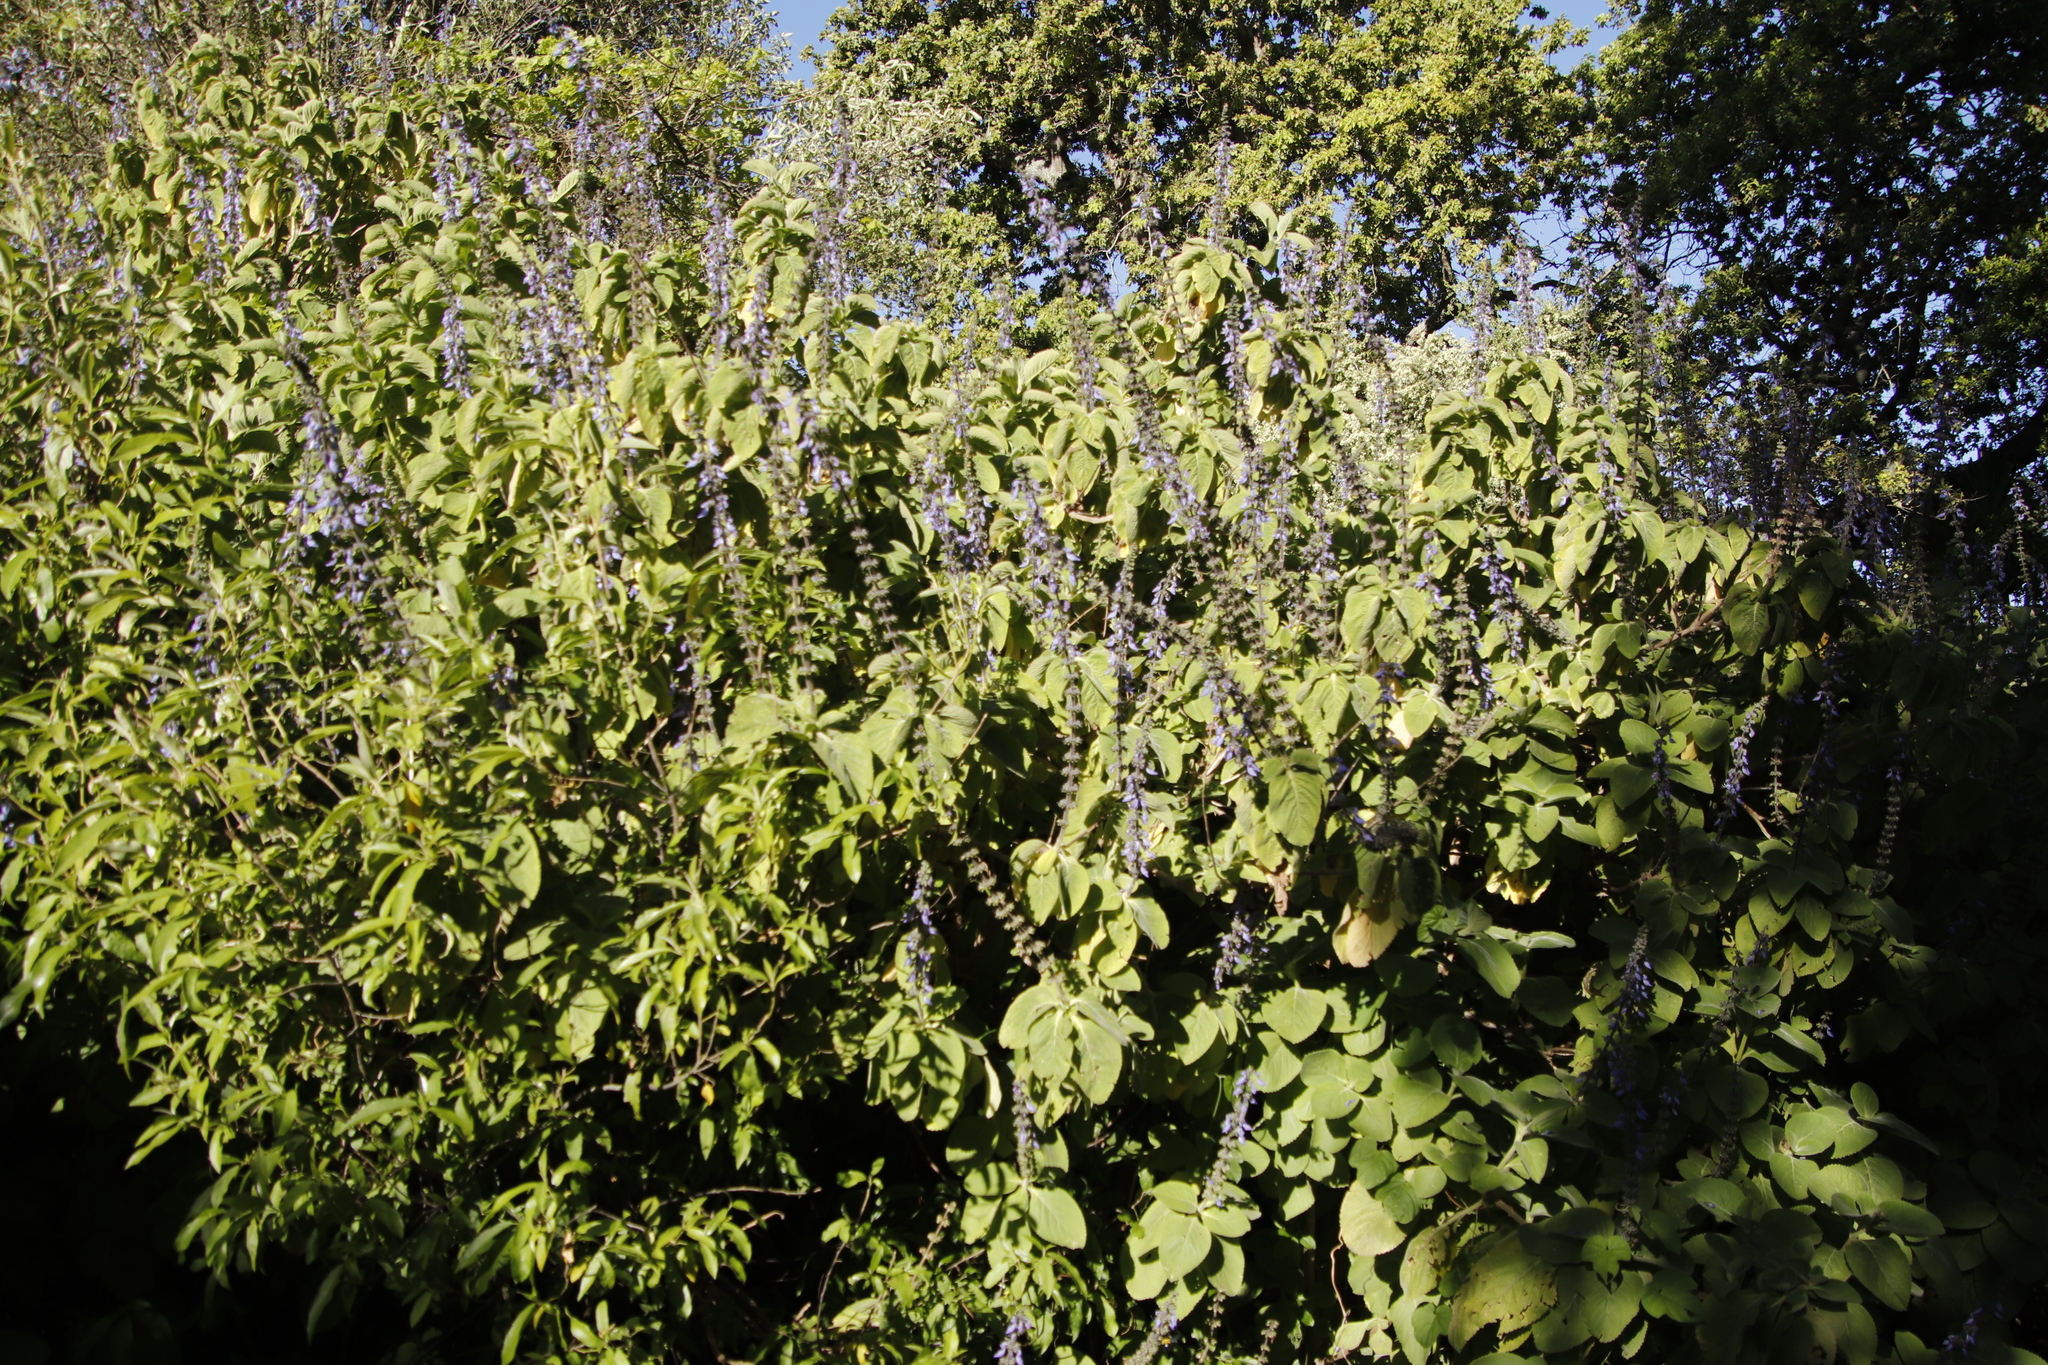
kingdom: Plantae
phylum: Tracheophyta
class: Magnoliopsida
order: Lamiales
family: Lamiaceae
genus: Coleus
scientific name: Coleus barbatus
